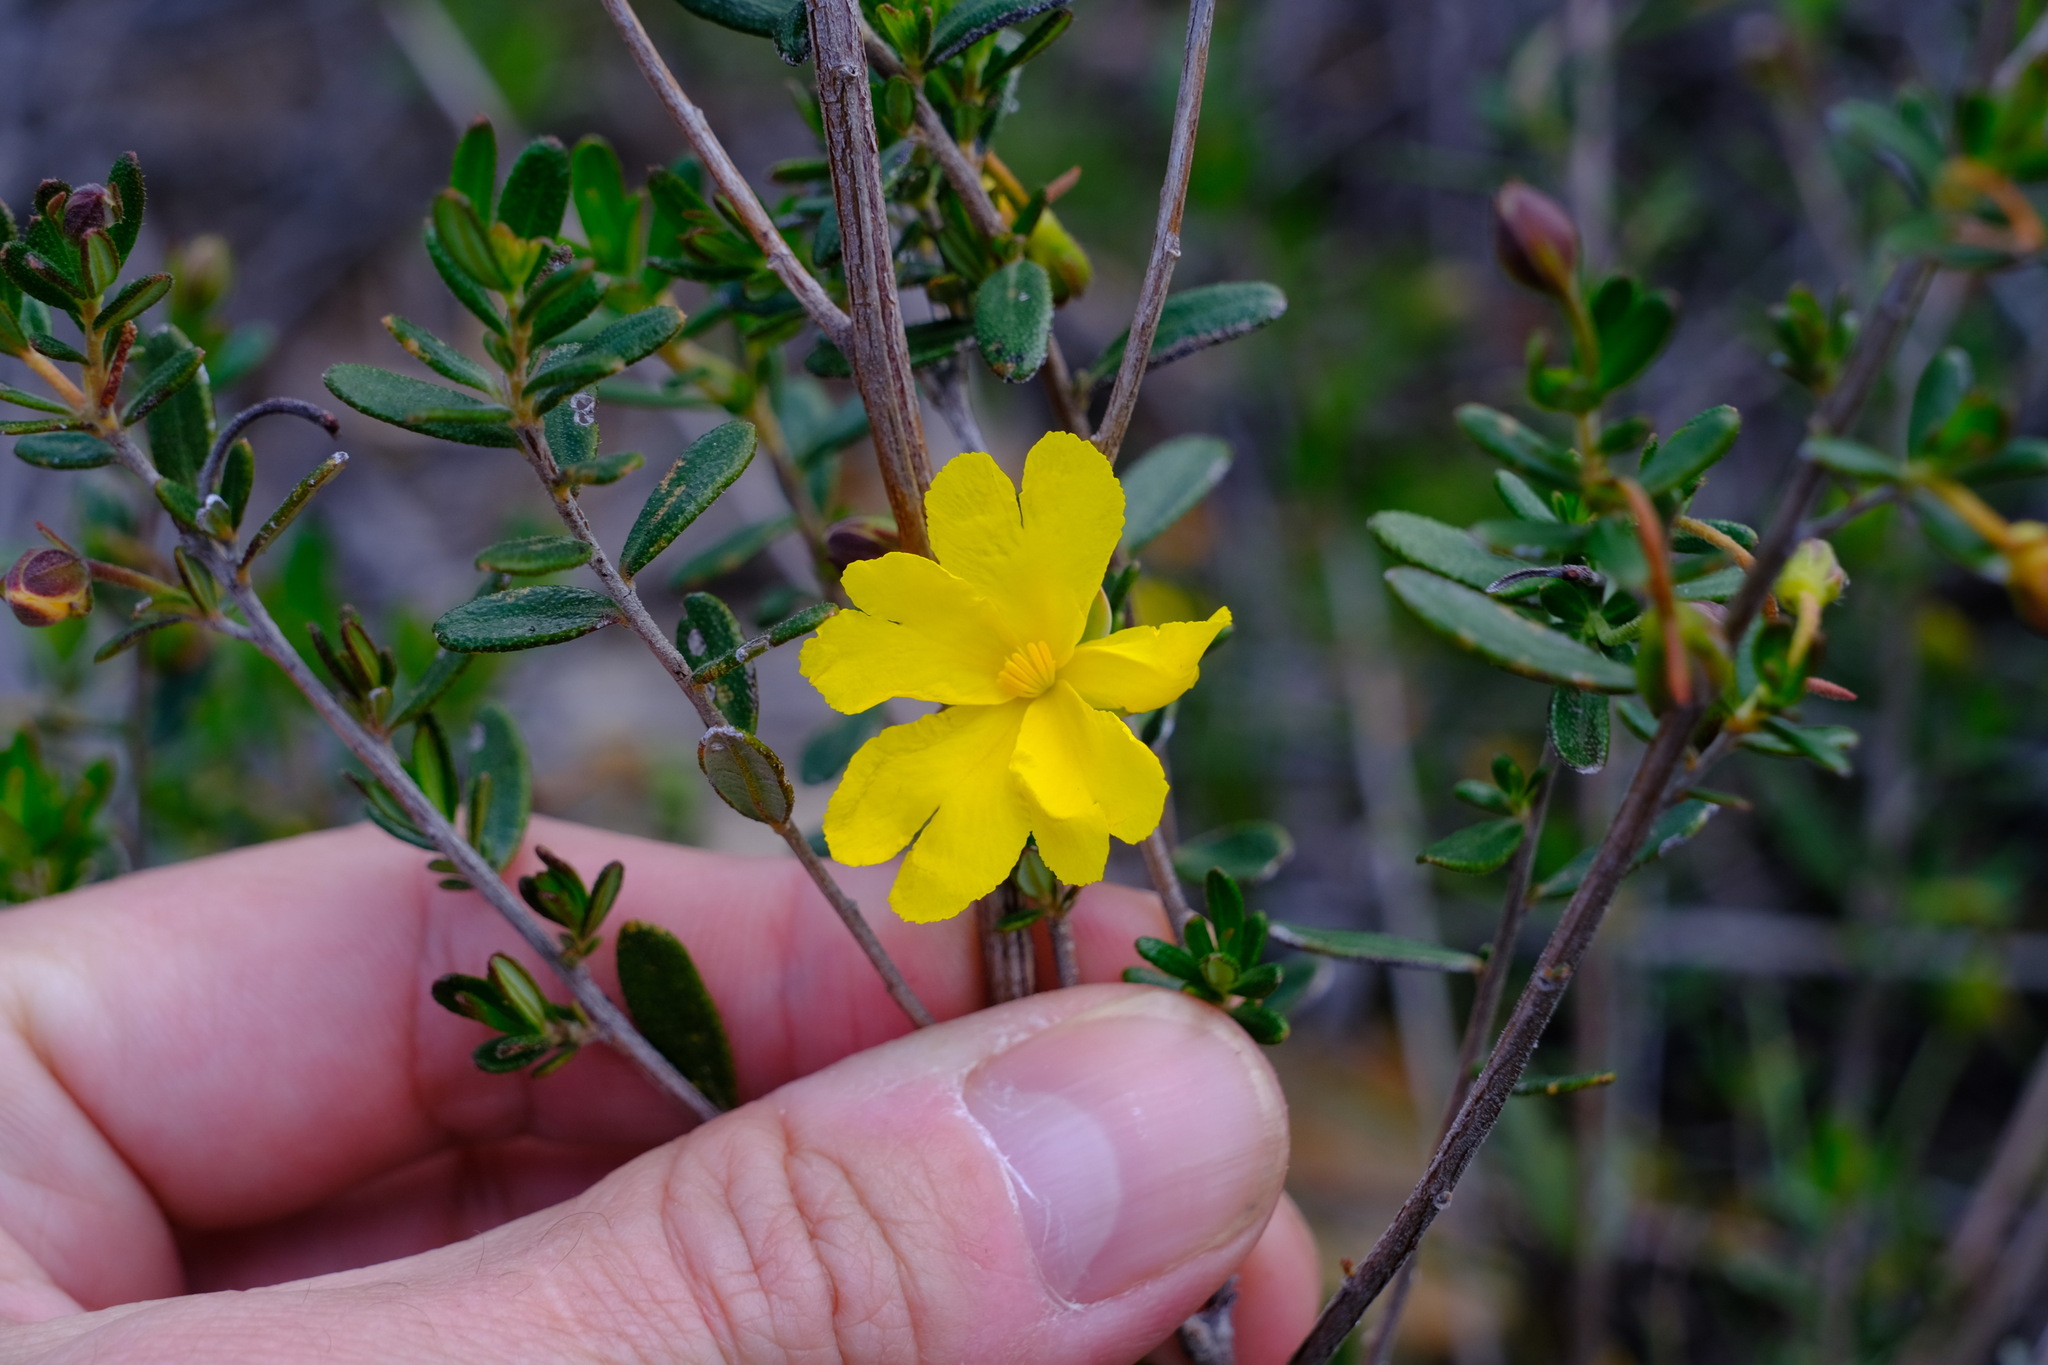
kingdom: Plantae
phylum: Tracheophyta
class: Magnoliopsida
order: Dilleniales
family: Dilleniaceae
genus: Hibbertia
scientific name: Hibbertia hypericoides
